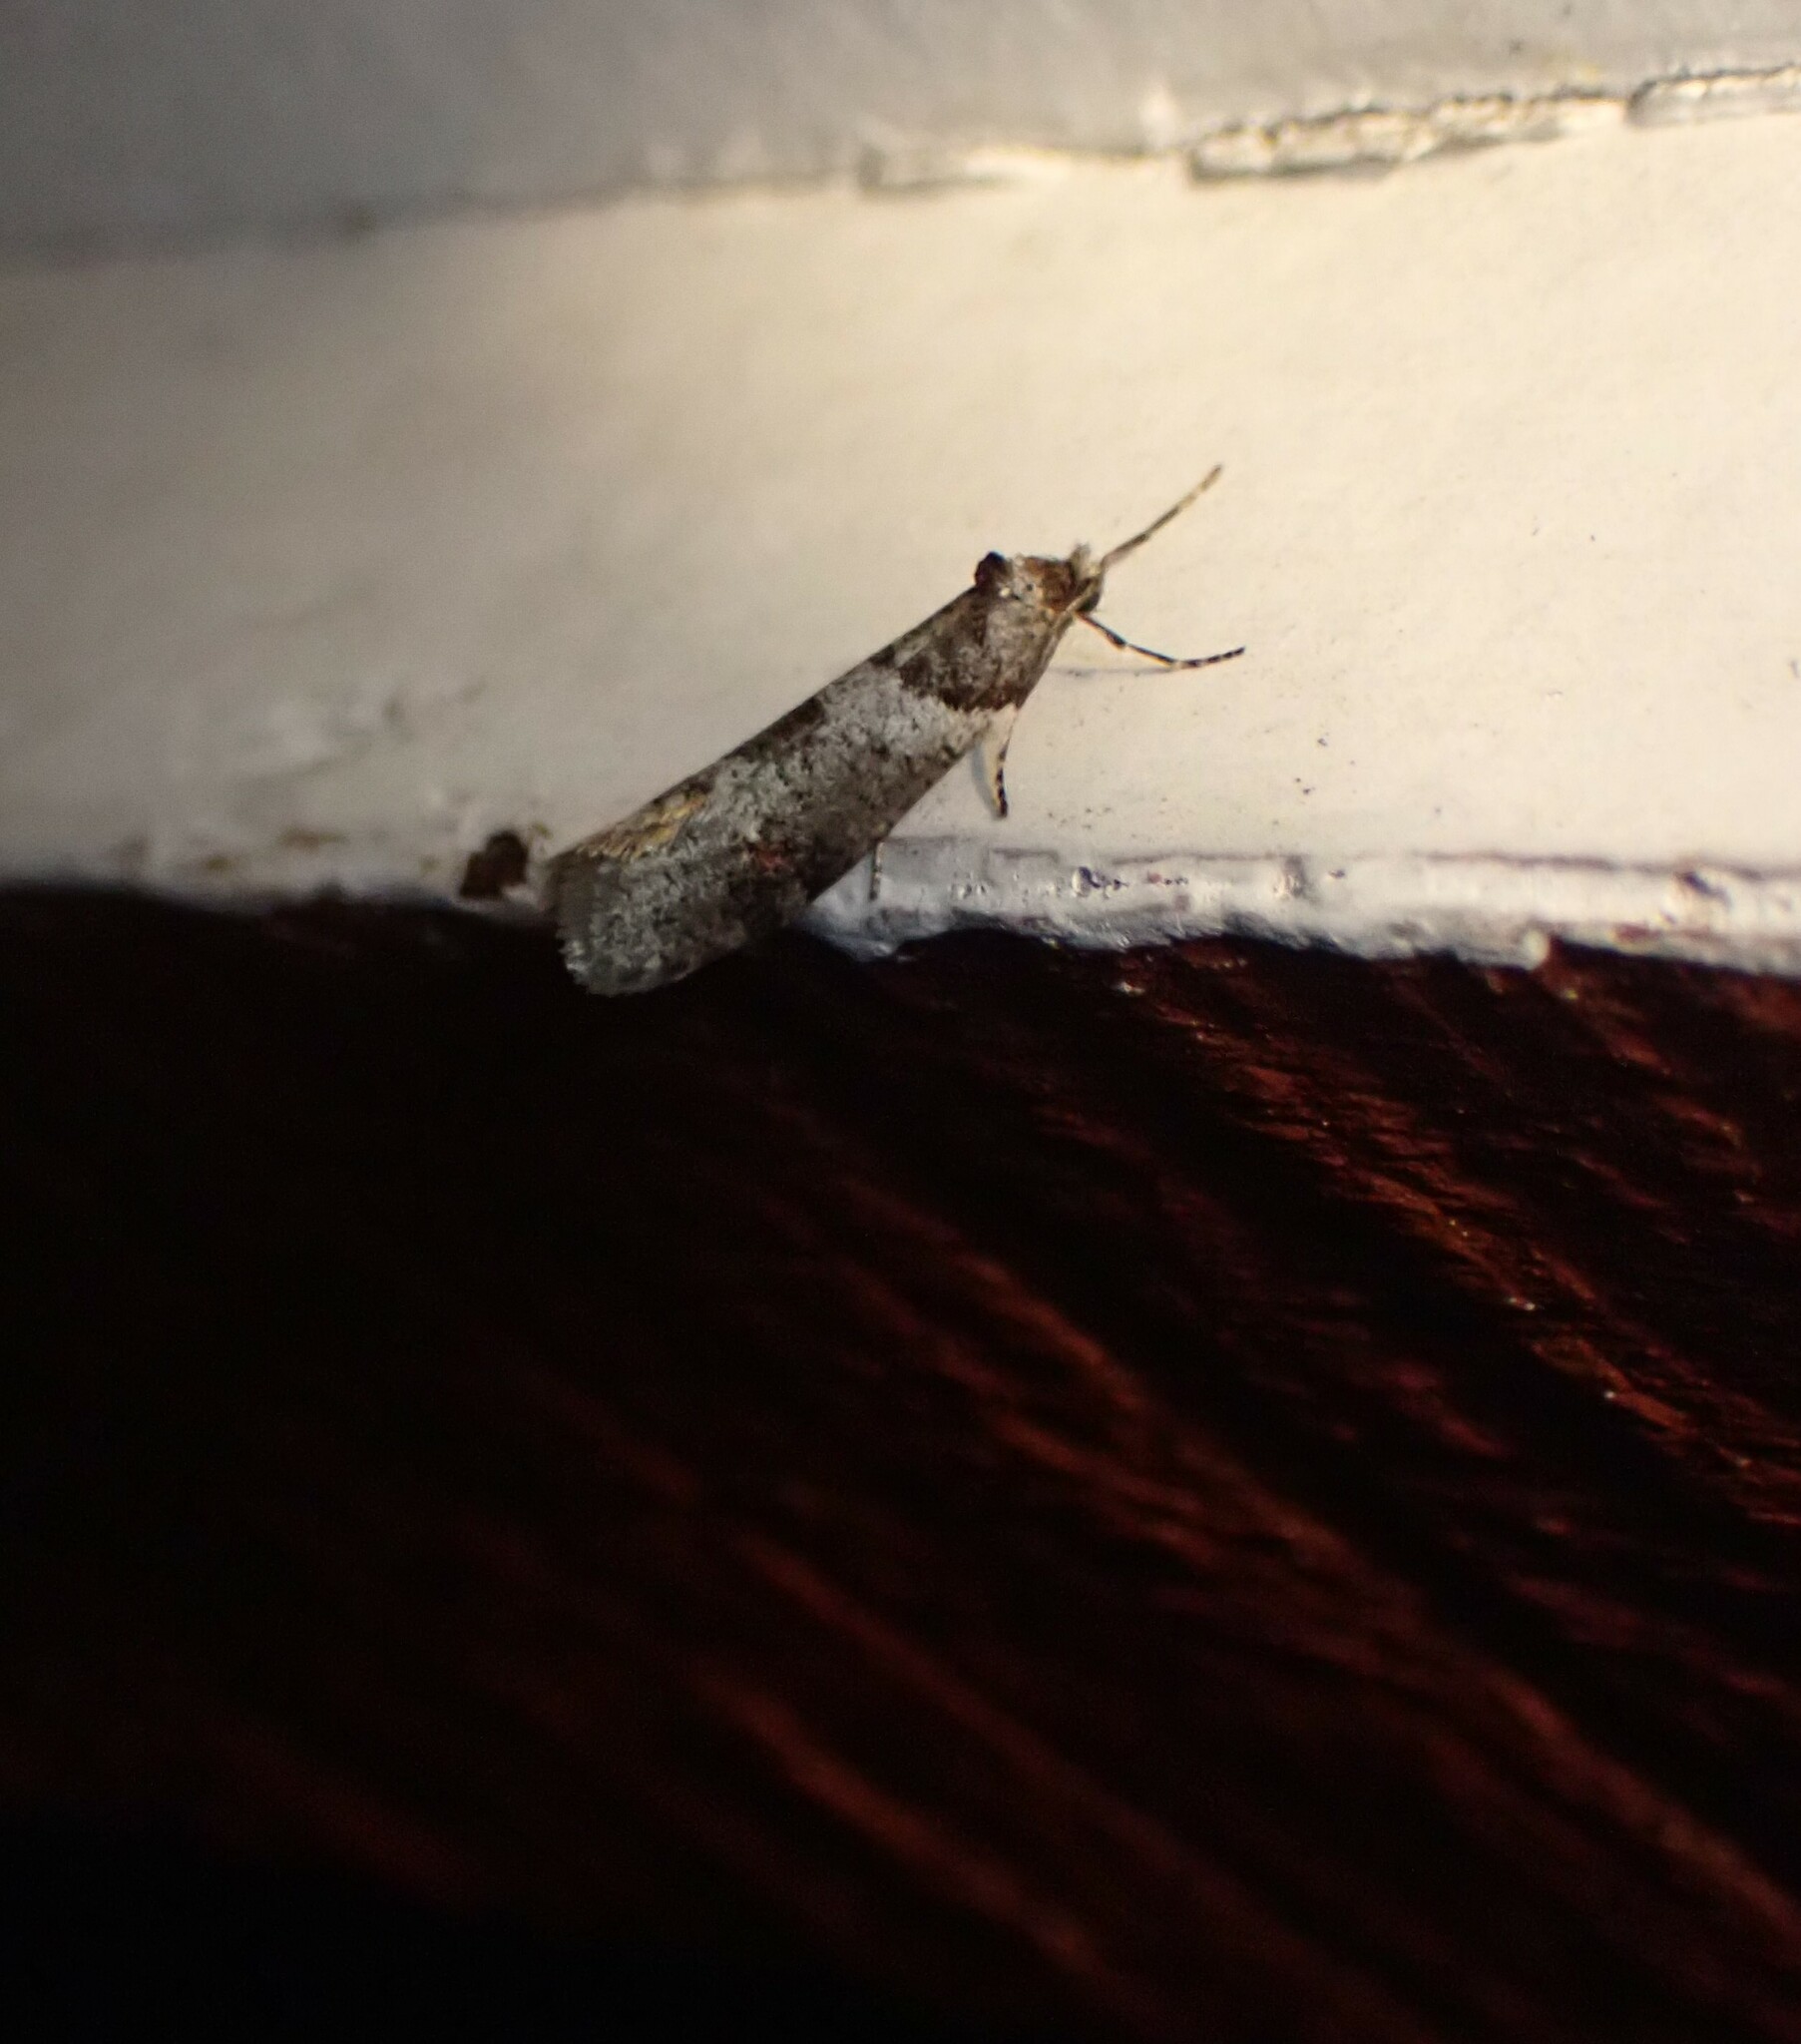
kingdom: Animalia
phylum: Arthropoda
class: Insecta
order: Lepidoptera
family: Psychidae
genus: Lepidoscia
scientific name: Lepidoscia heliochares
